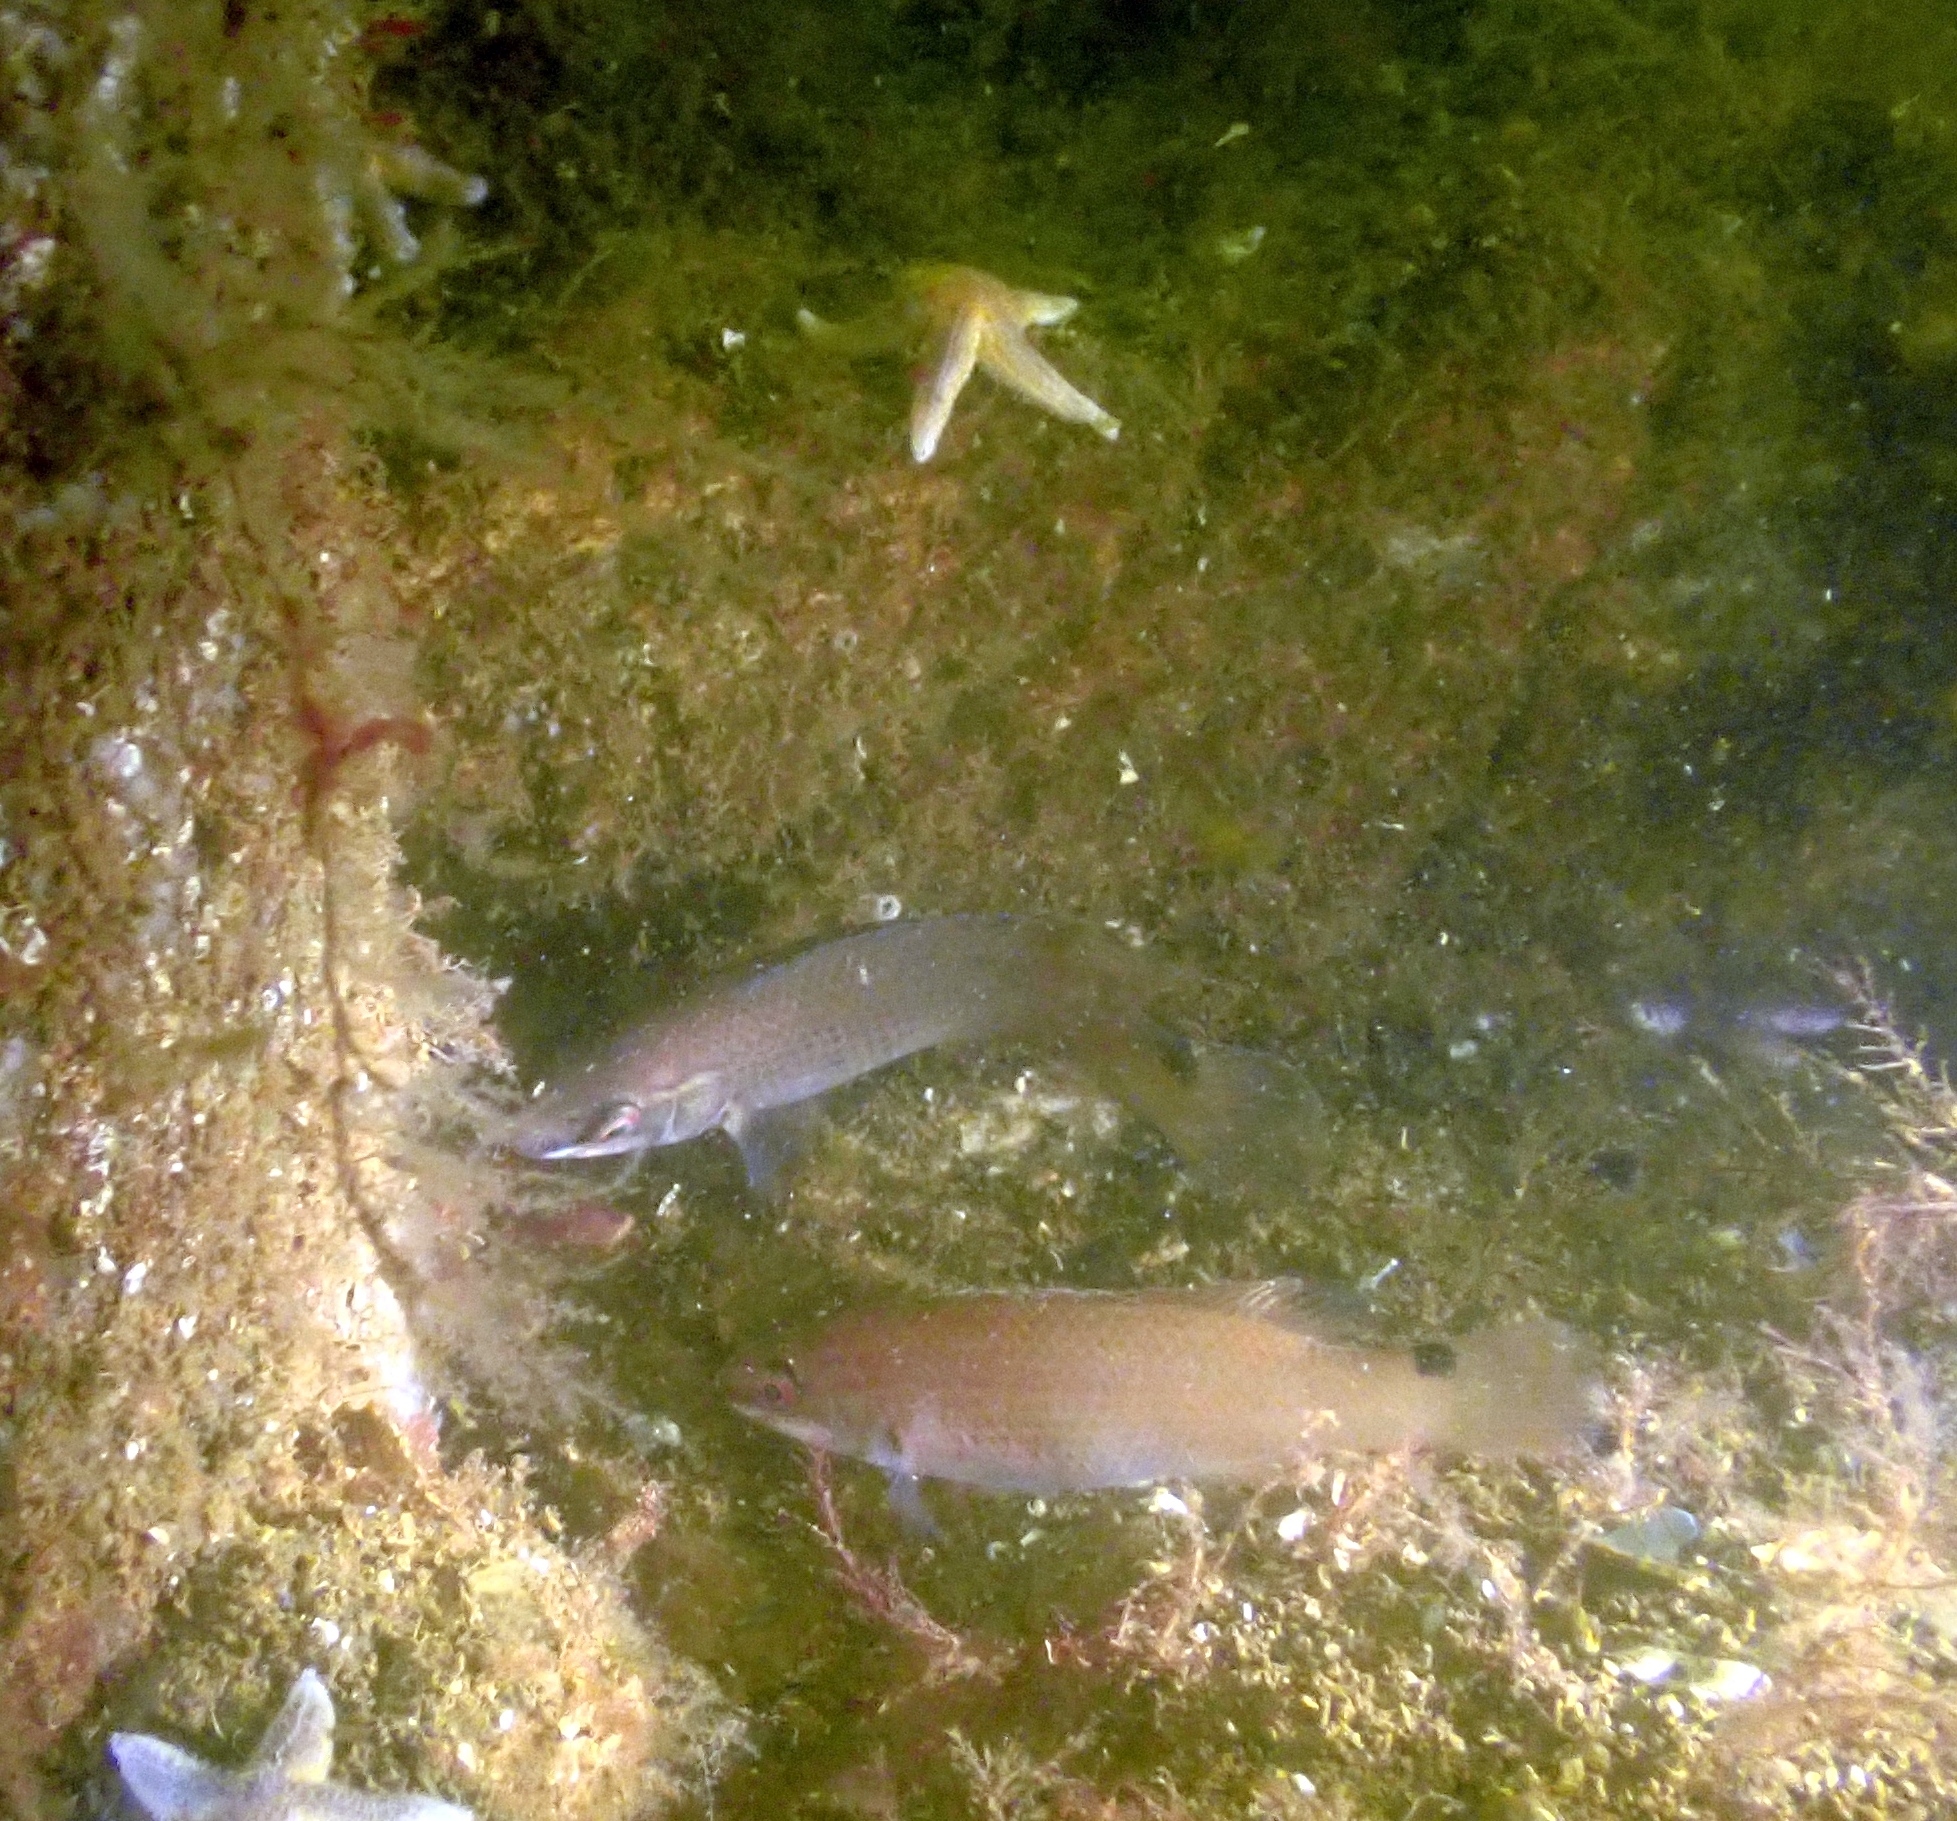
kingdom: Animalia
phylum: Chordata
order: Perciformes
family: Labridae
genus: Ctenolabrus
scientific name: Ctenolabrus rupestris
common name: Goldsinny
